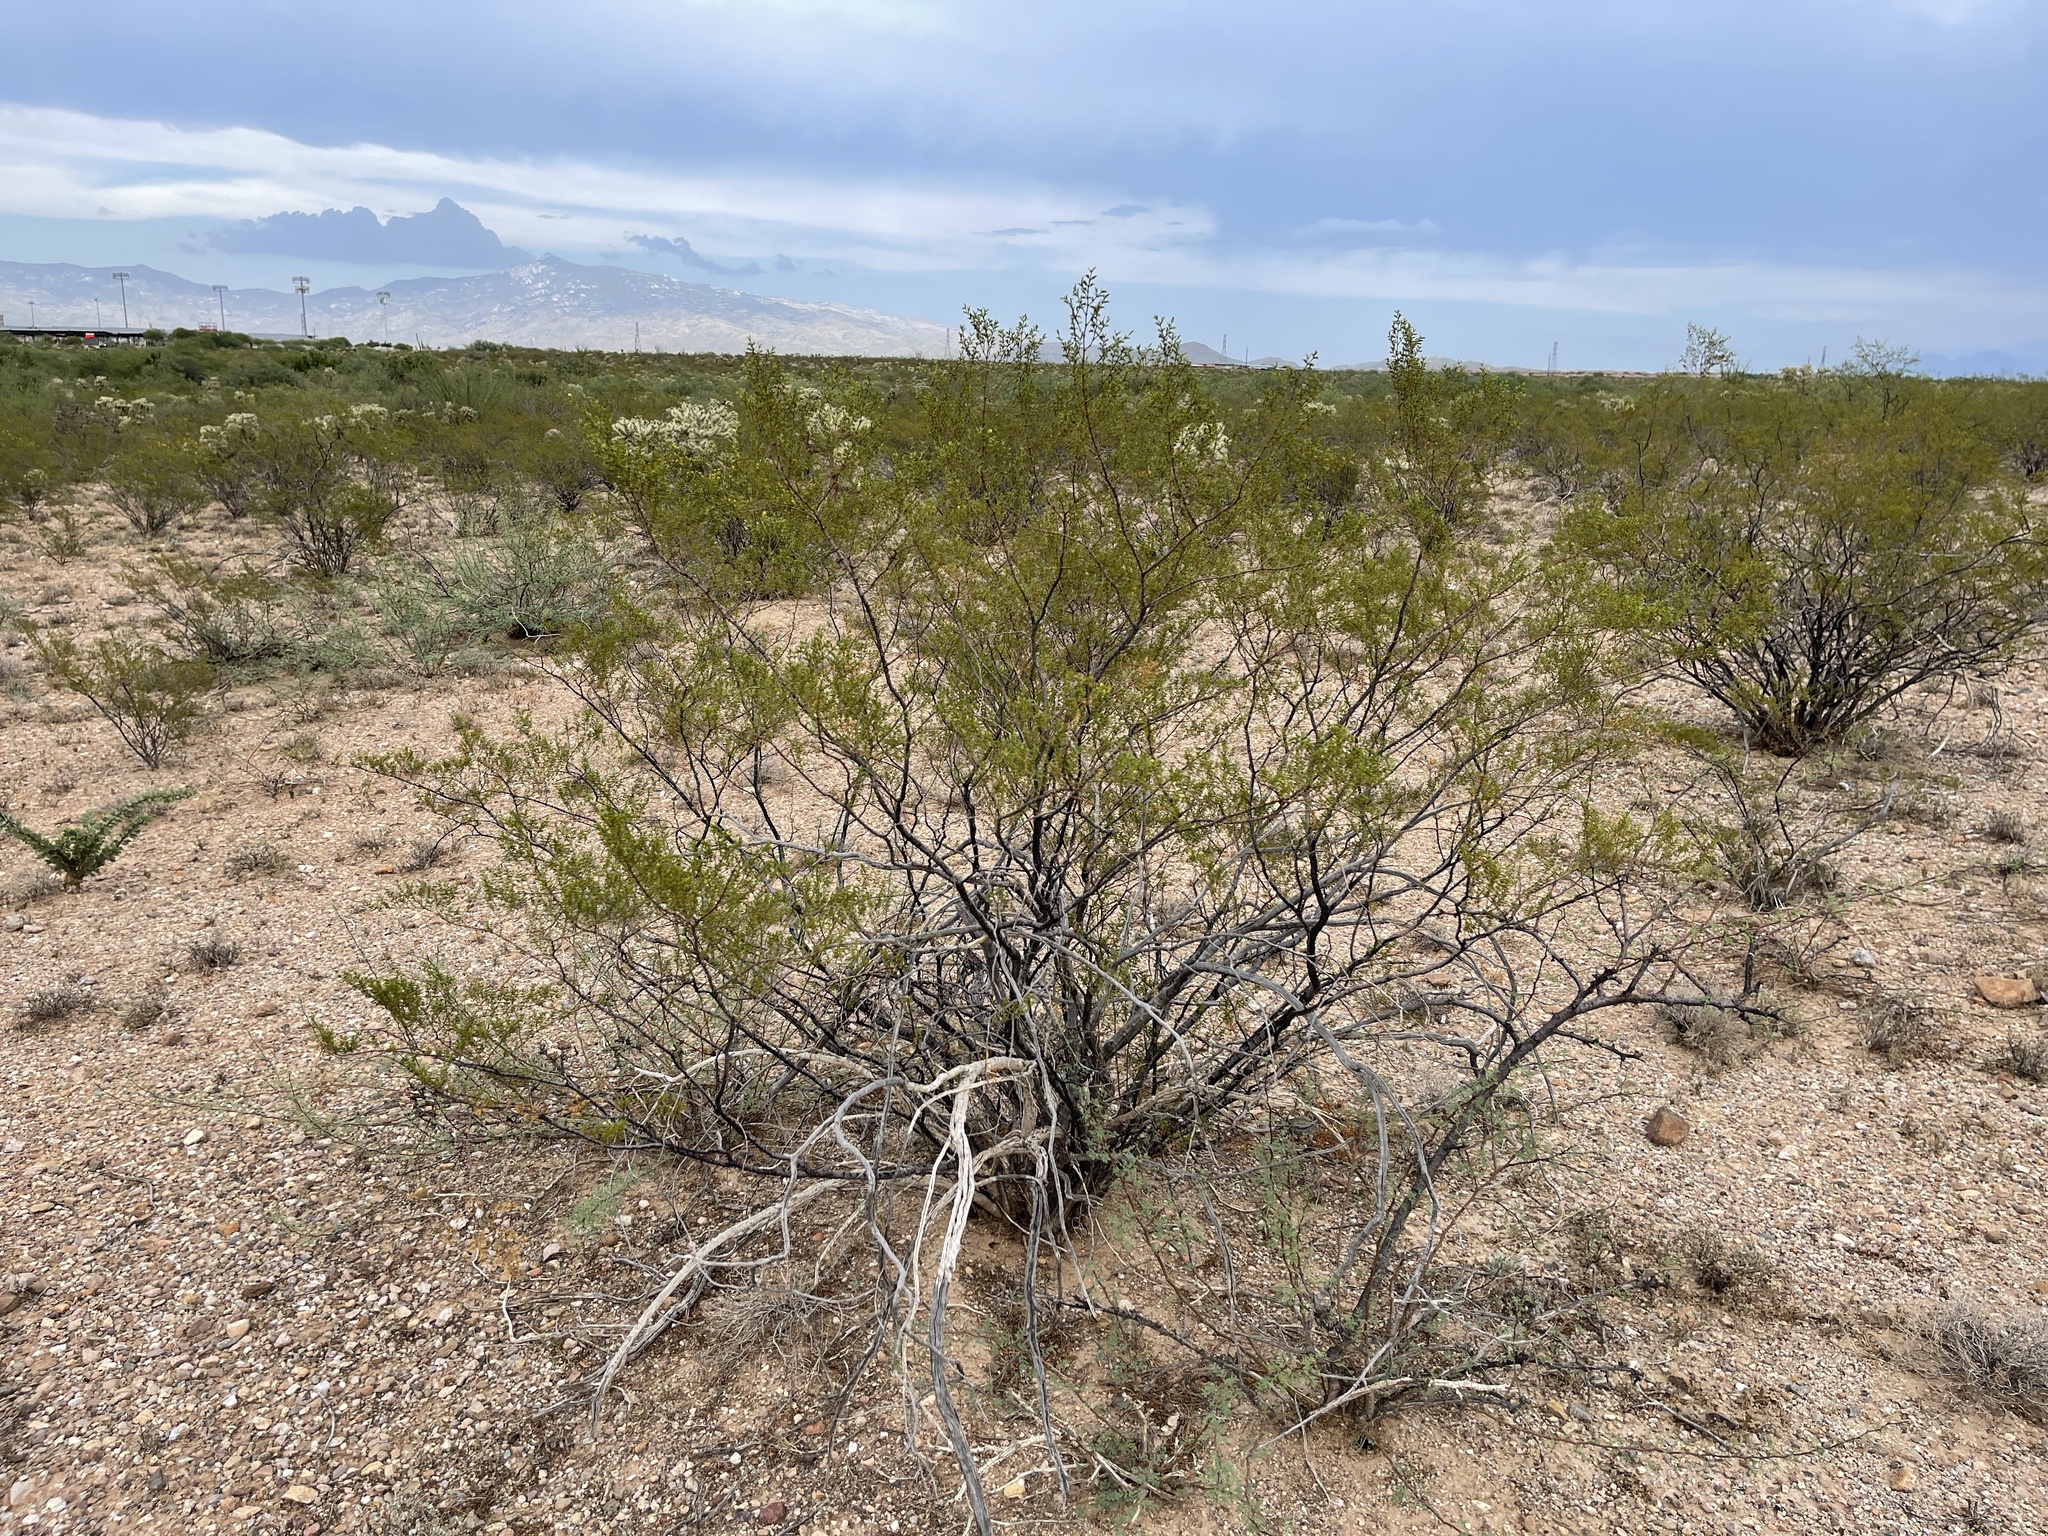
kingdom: Plantae
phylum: Tracheophyta
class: Magnoliopsida
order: Zygophyllales
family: Zygophyllaceae
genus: Larrea
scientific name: Larrea tridentata
